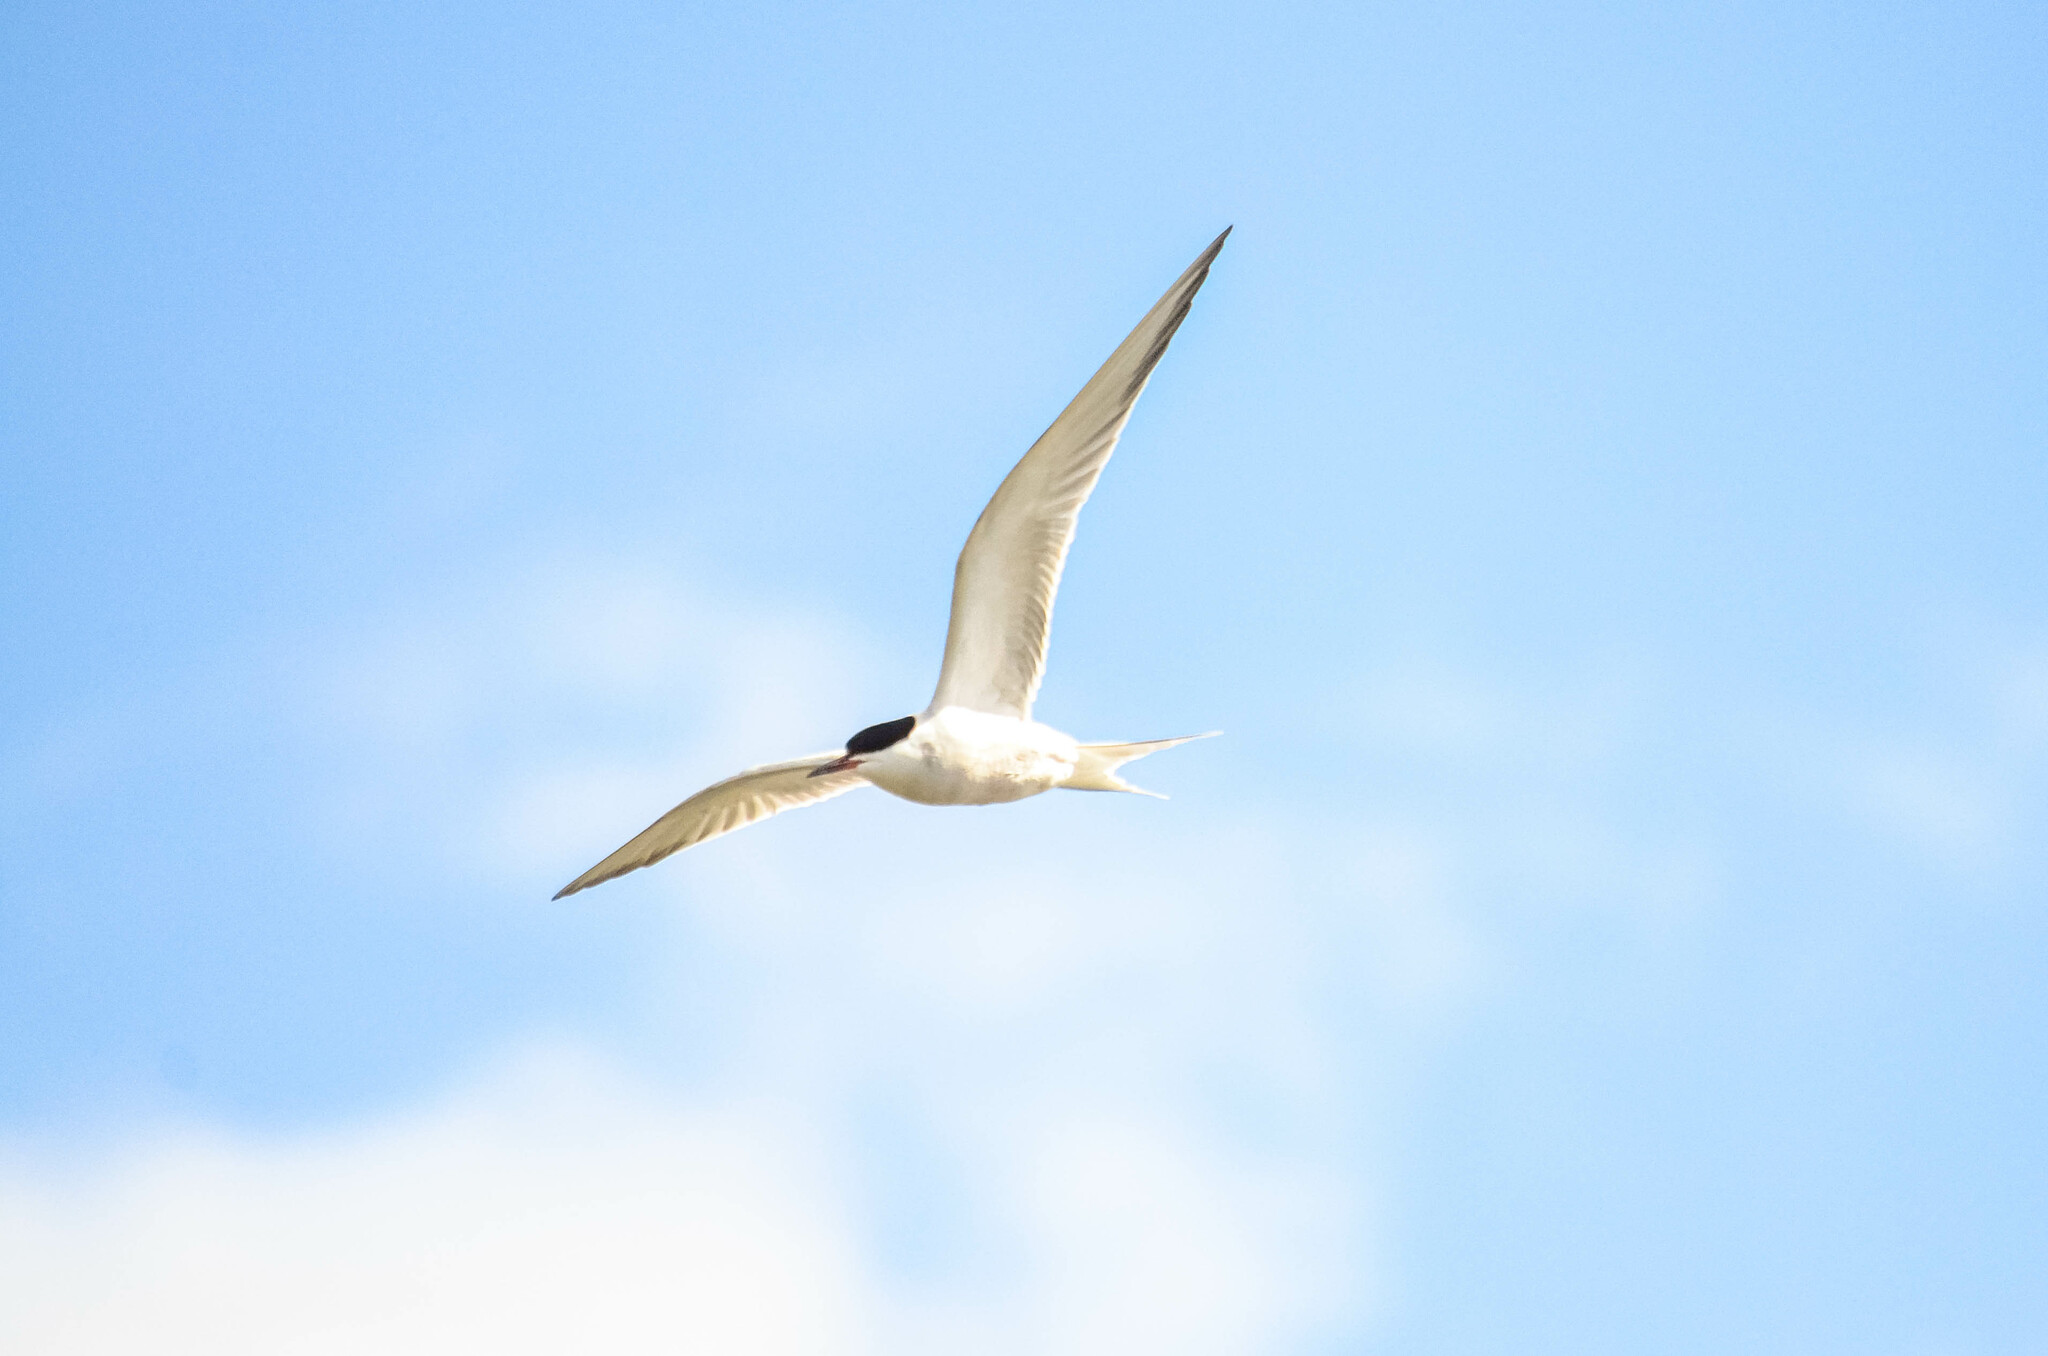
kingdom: Animalia
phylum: Chordata
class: Aves
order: Charadriiformes
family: Laridae
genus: Sterna
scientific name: Sterna hirundo
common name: Common tern
